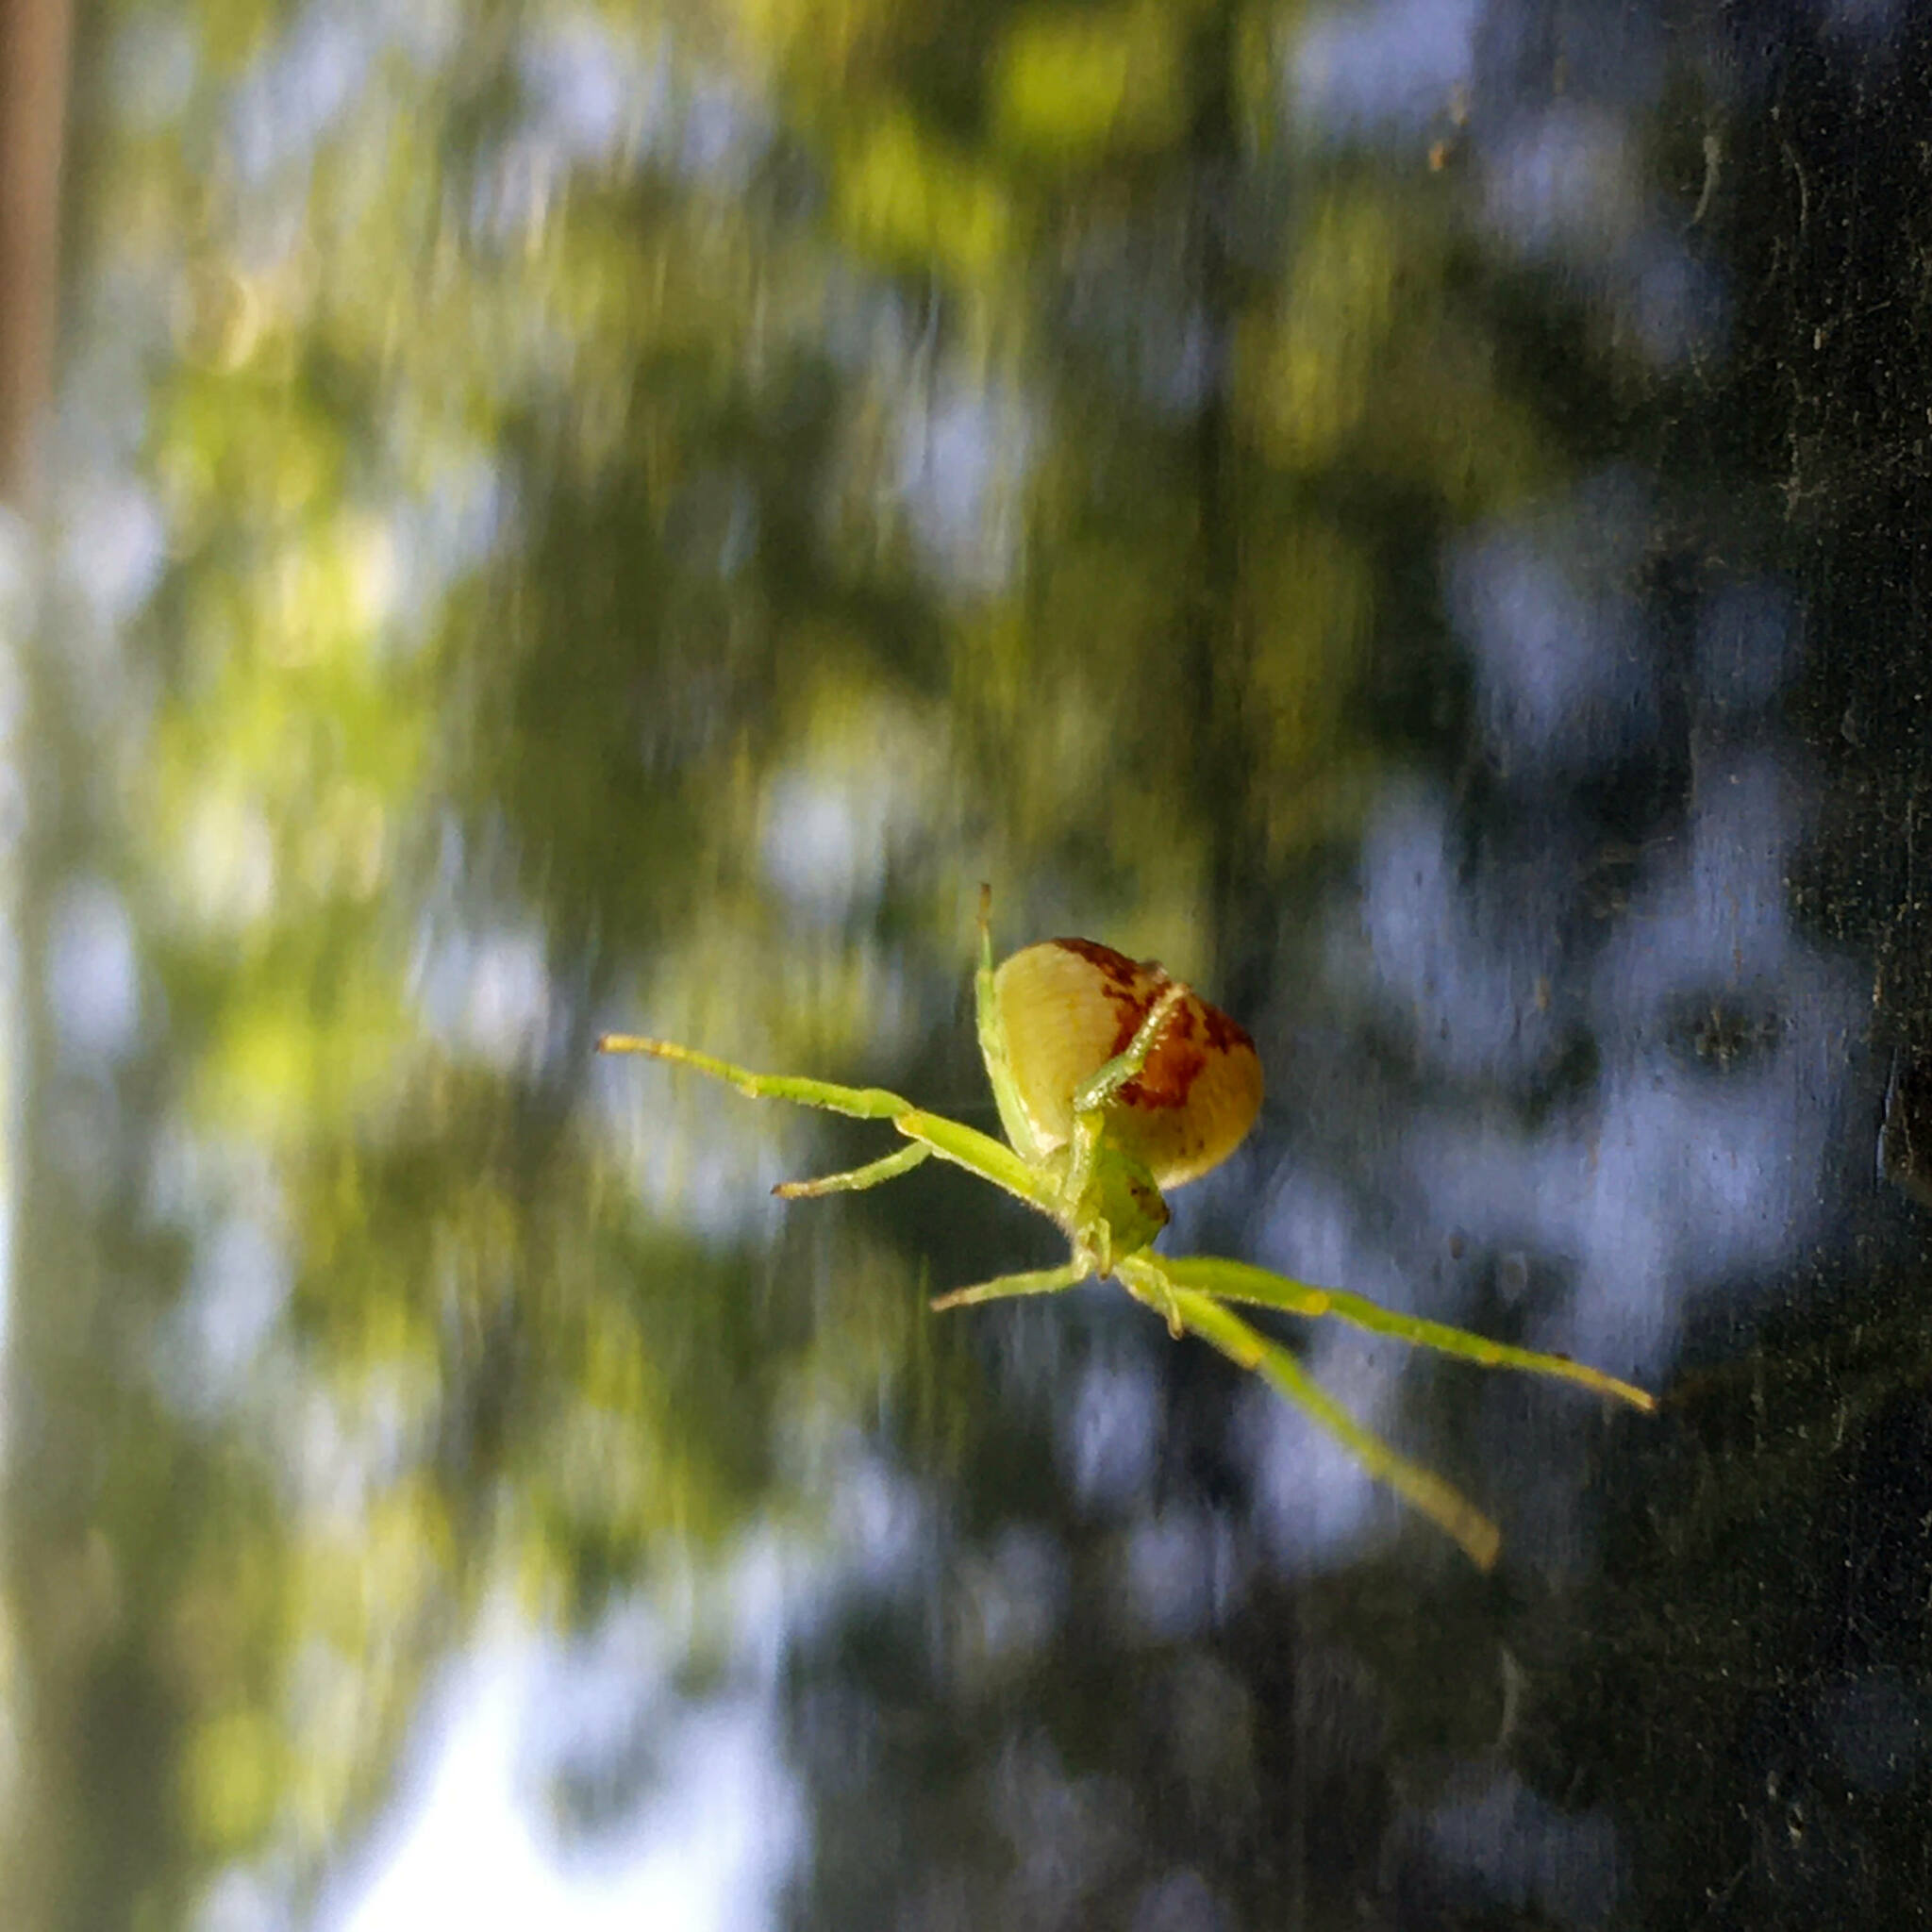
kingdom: Animalia
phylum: Arthropoda
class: Arachnida
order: Araneae
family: Thomisidae
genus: Ebrechtella
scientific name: Ebrechtella tricuspidata
